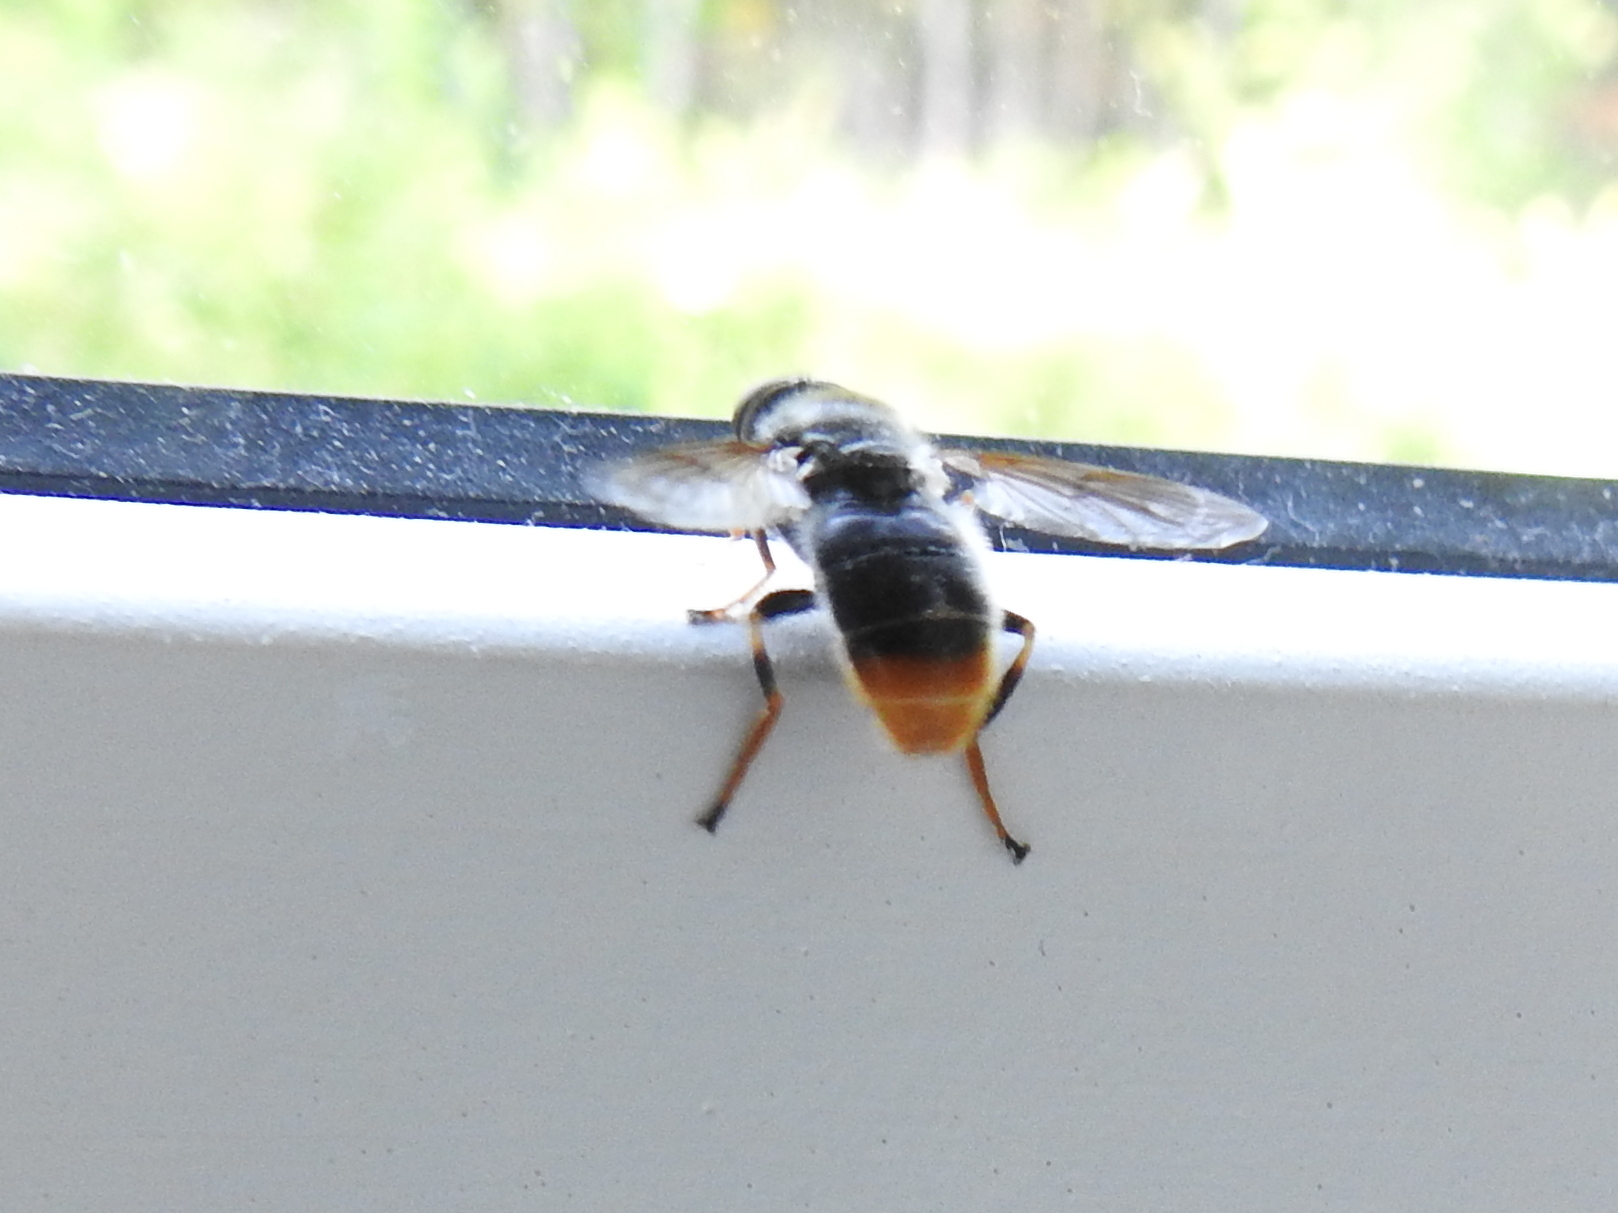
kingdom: Animalia
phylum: Arthropoda
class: Insecta
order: Diptera
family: Syrphidae
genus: Blera
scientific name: Blera fallax
